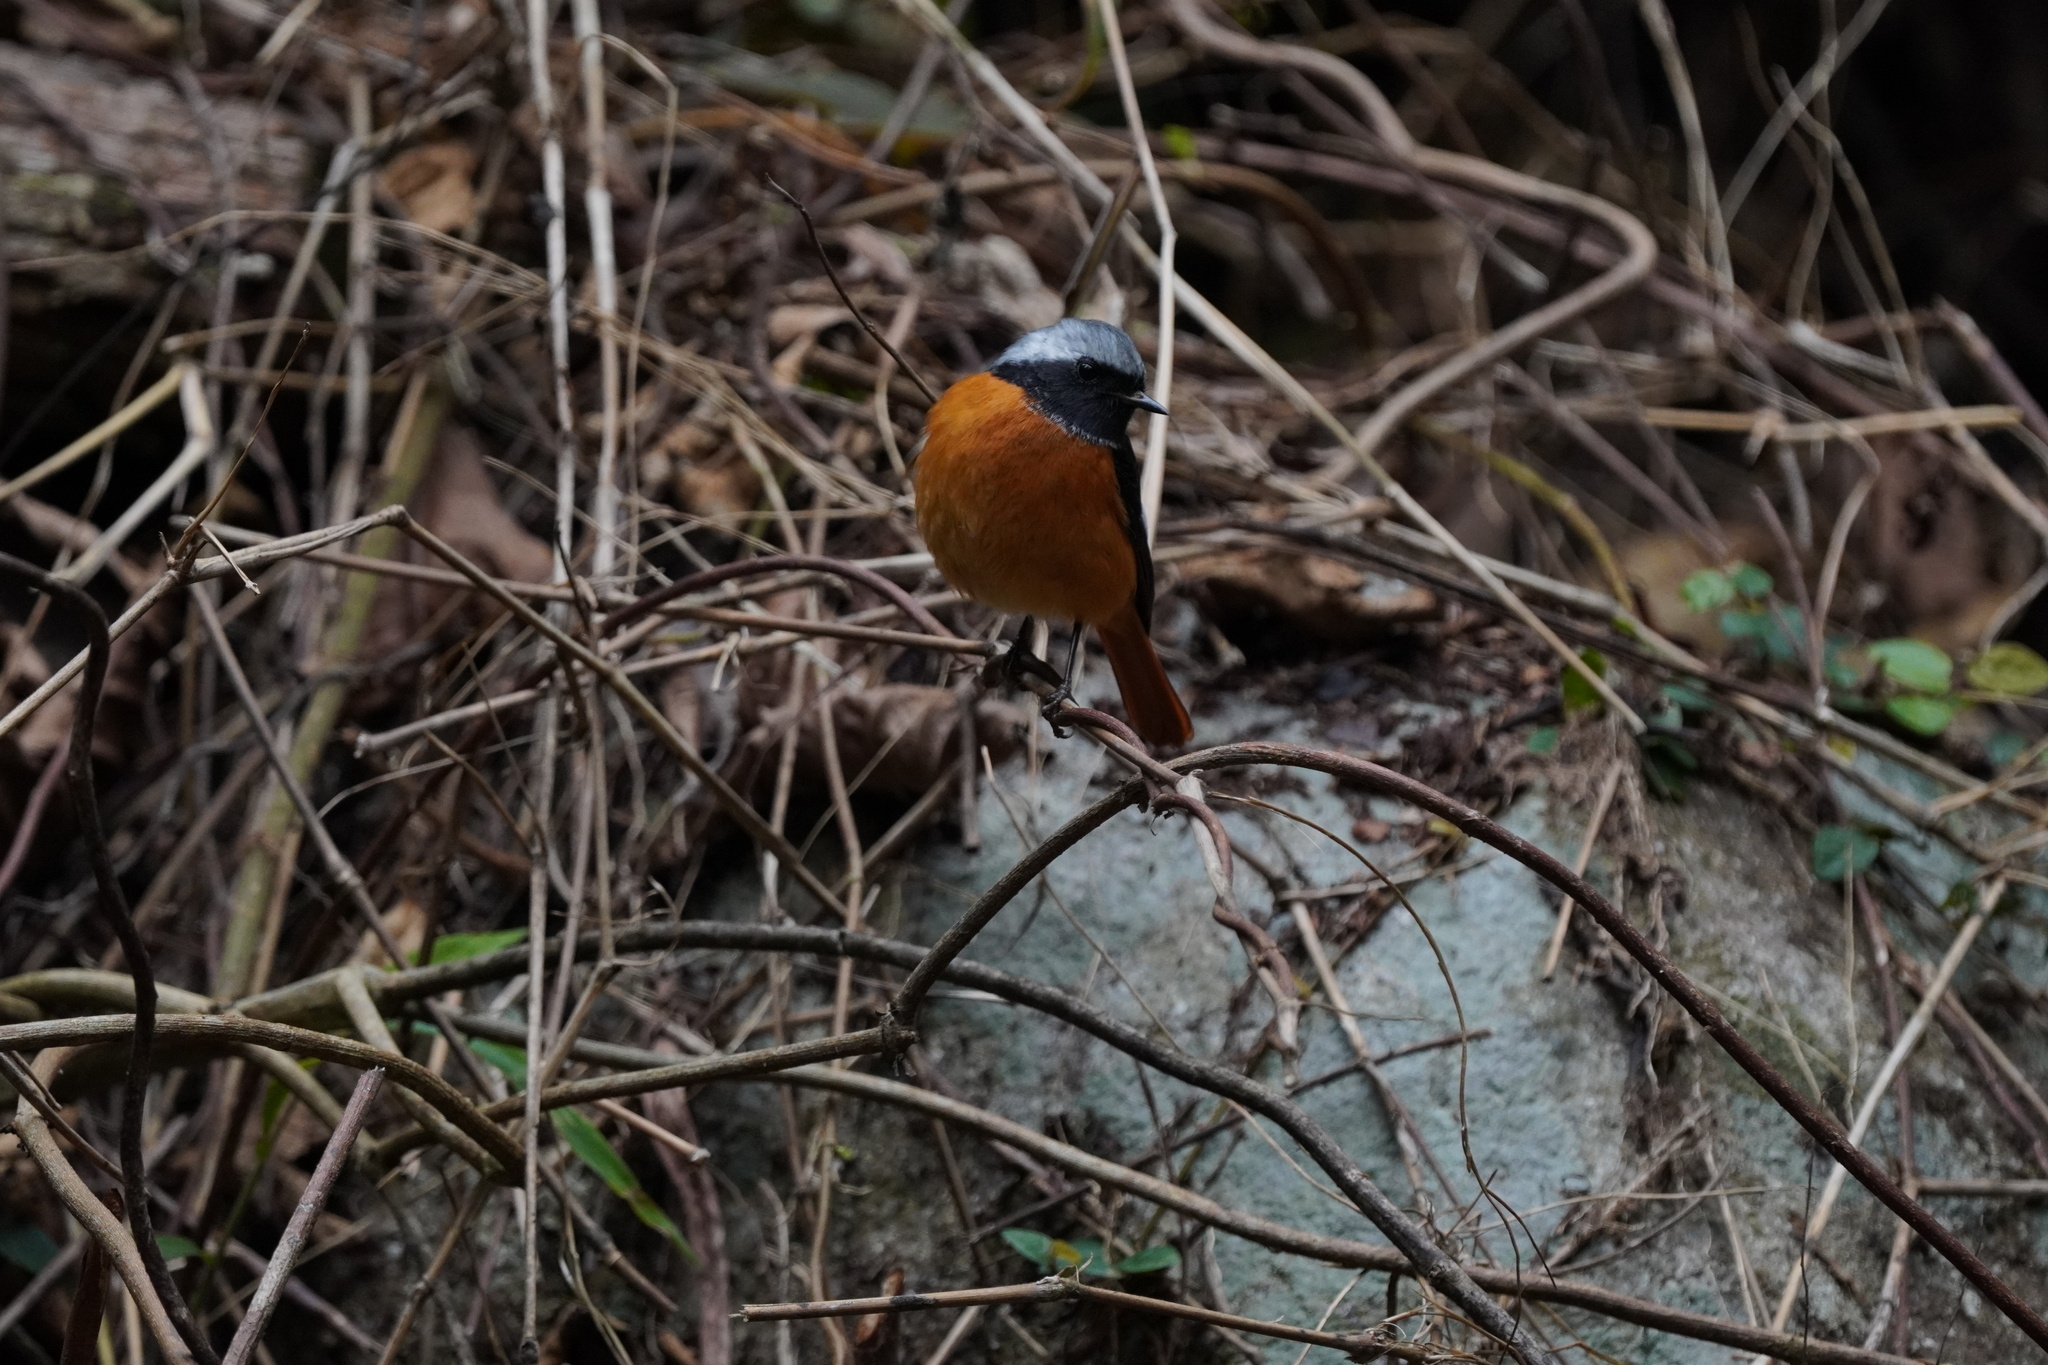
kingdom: Animalia
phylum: Chordata
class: Aves
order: Passeriformes
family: Muscicapidae
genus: Phoenicurus
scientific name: Phoenicurus auroreus
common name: Daurian redstart
